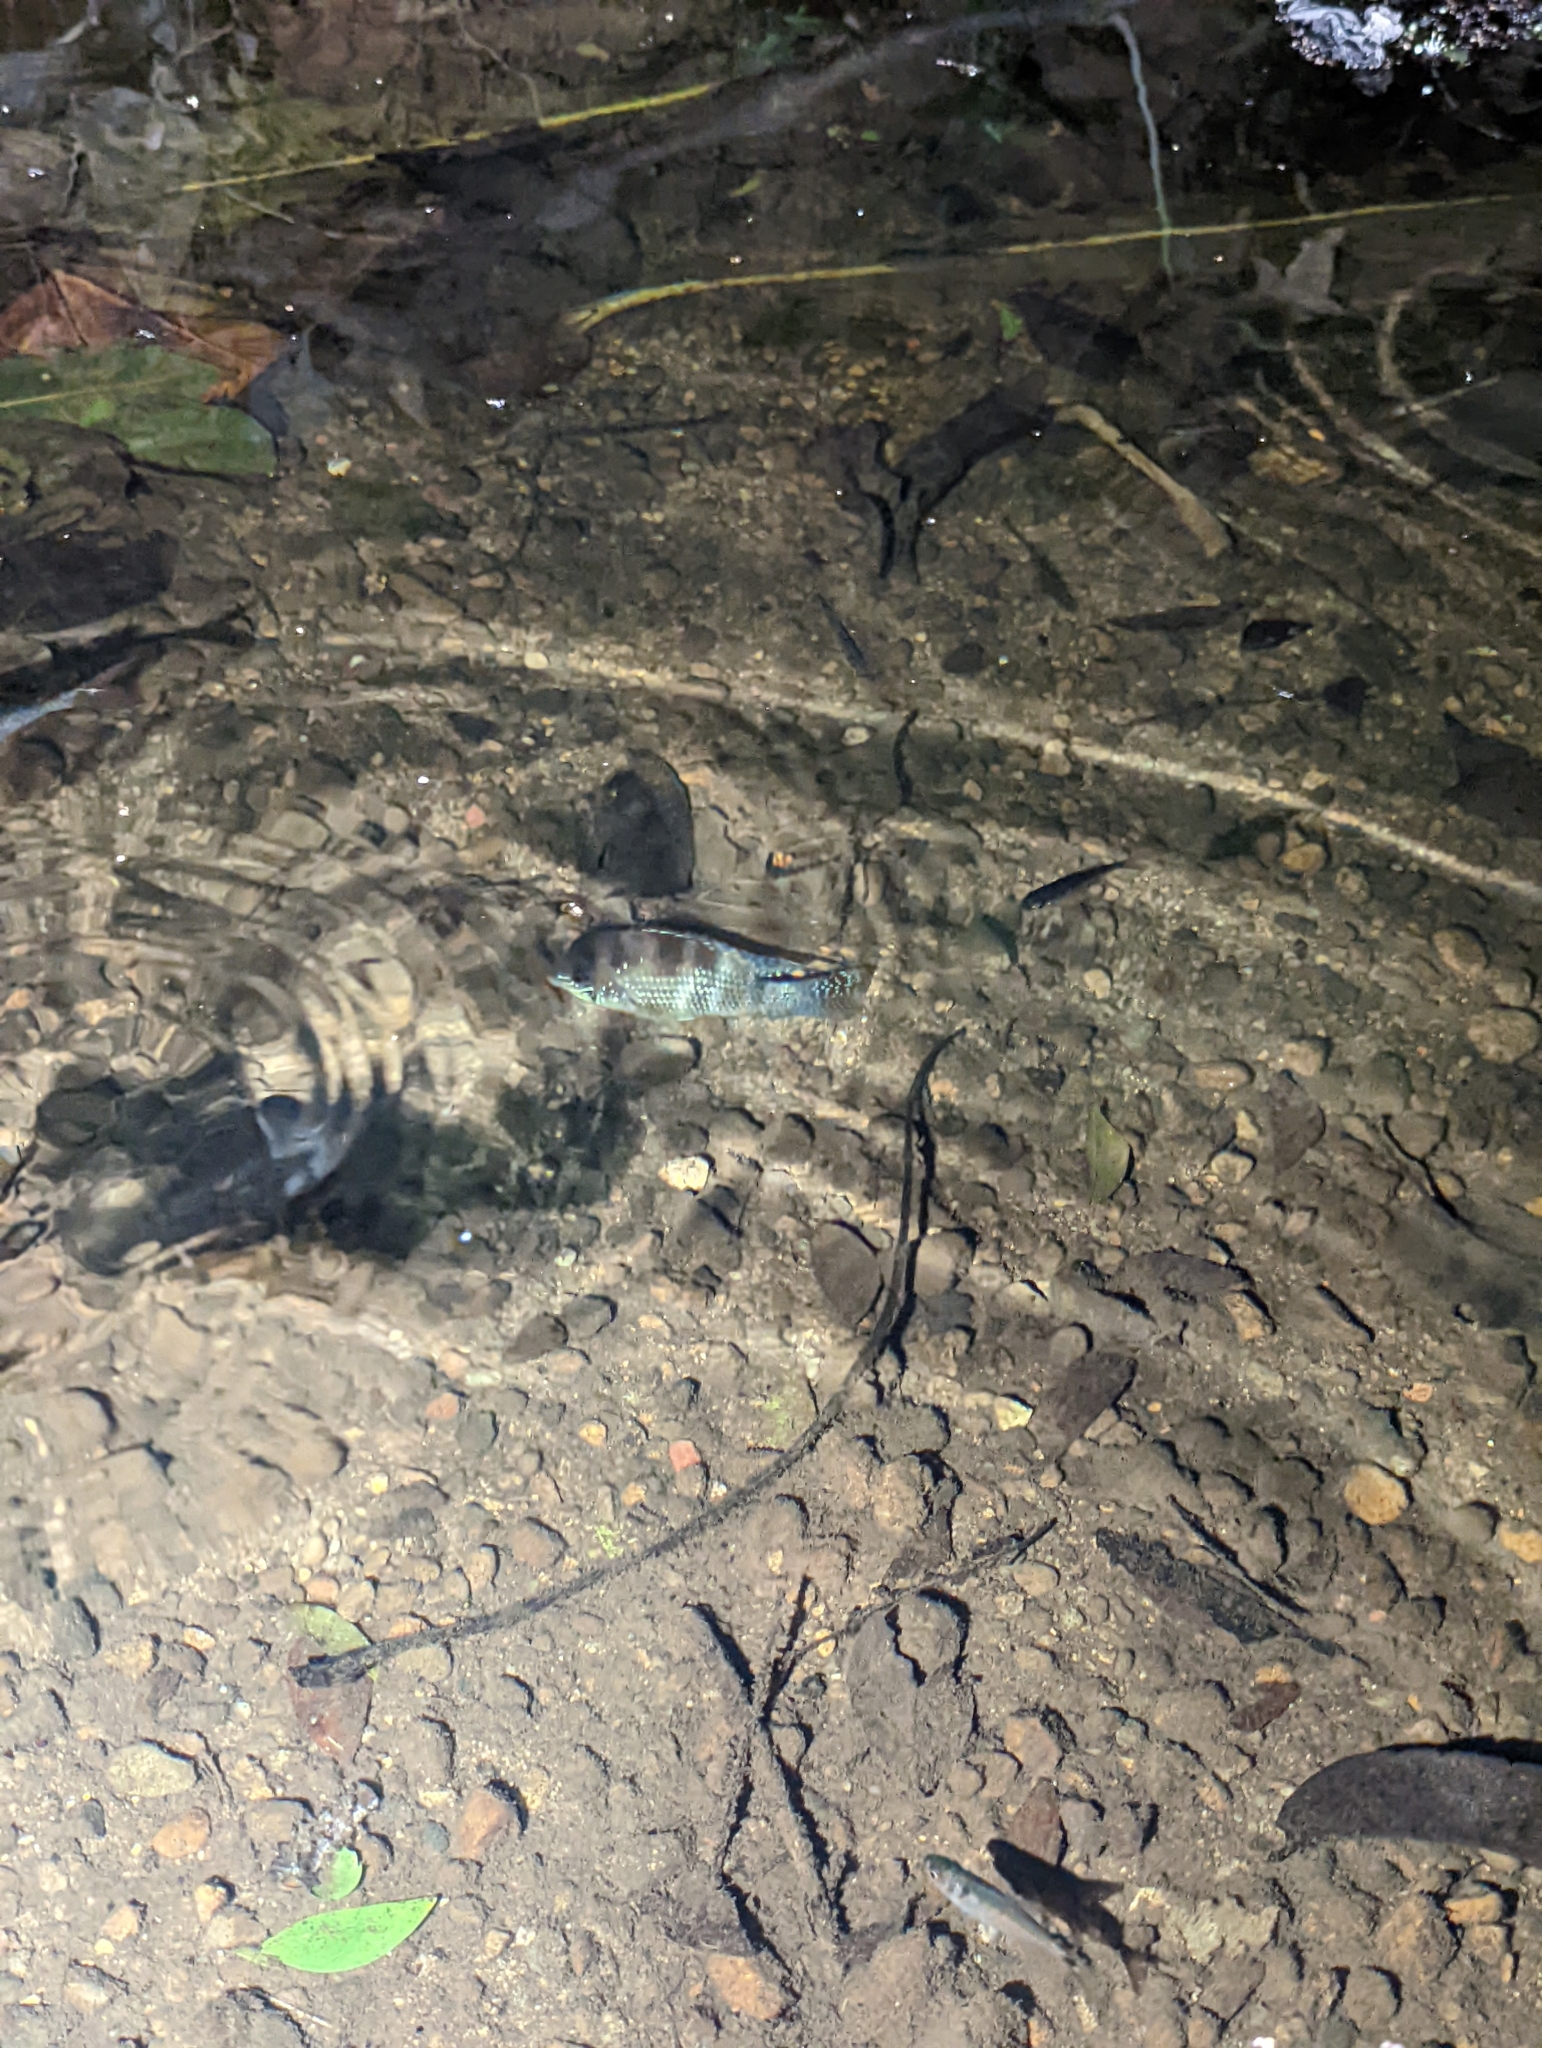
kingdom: Animalia
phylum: Chordata
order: Perciformes
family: Cichlidae
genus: Andinoacara
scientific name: Andinoacara coeruleopunctatus
